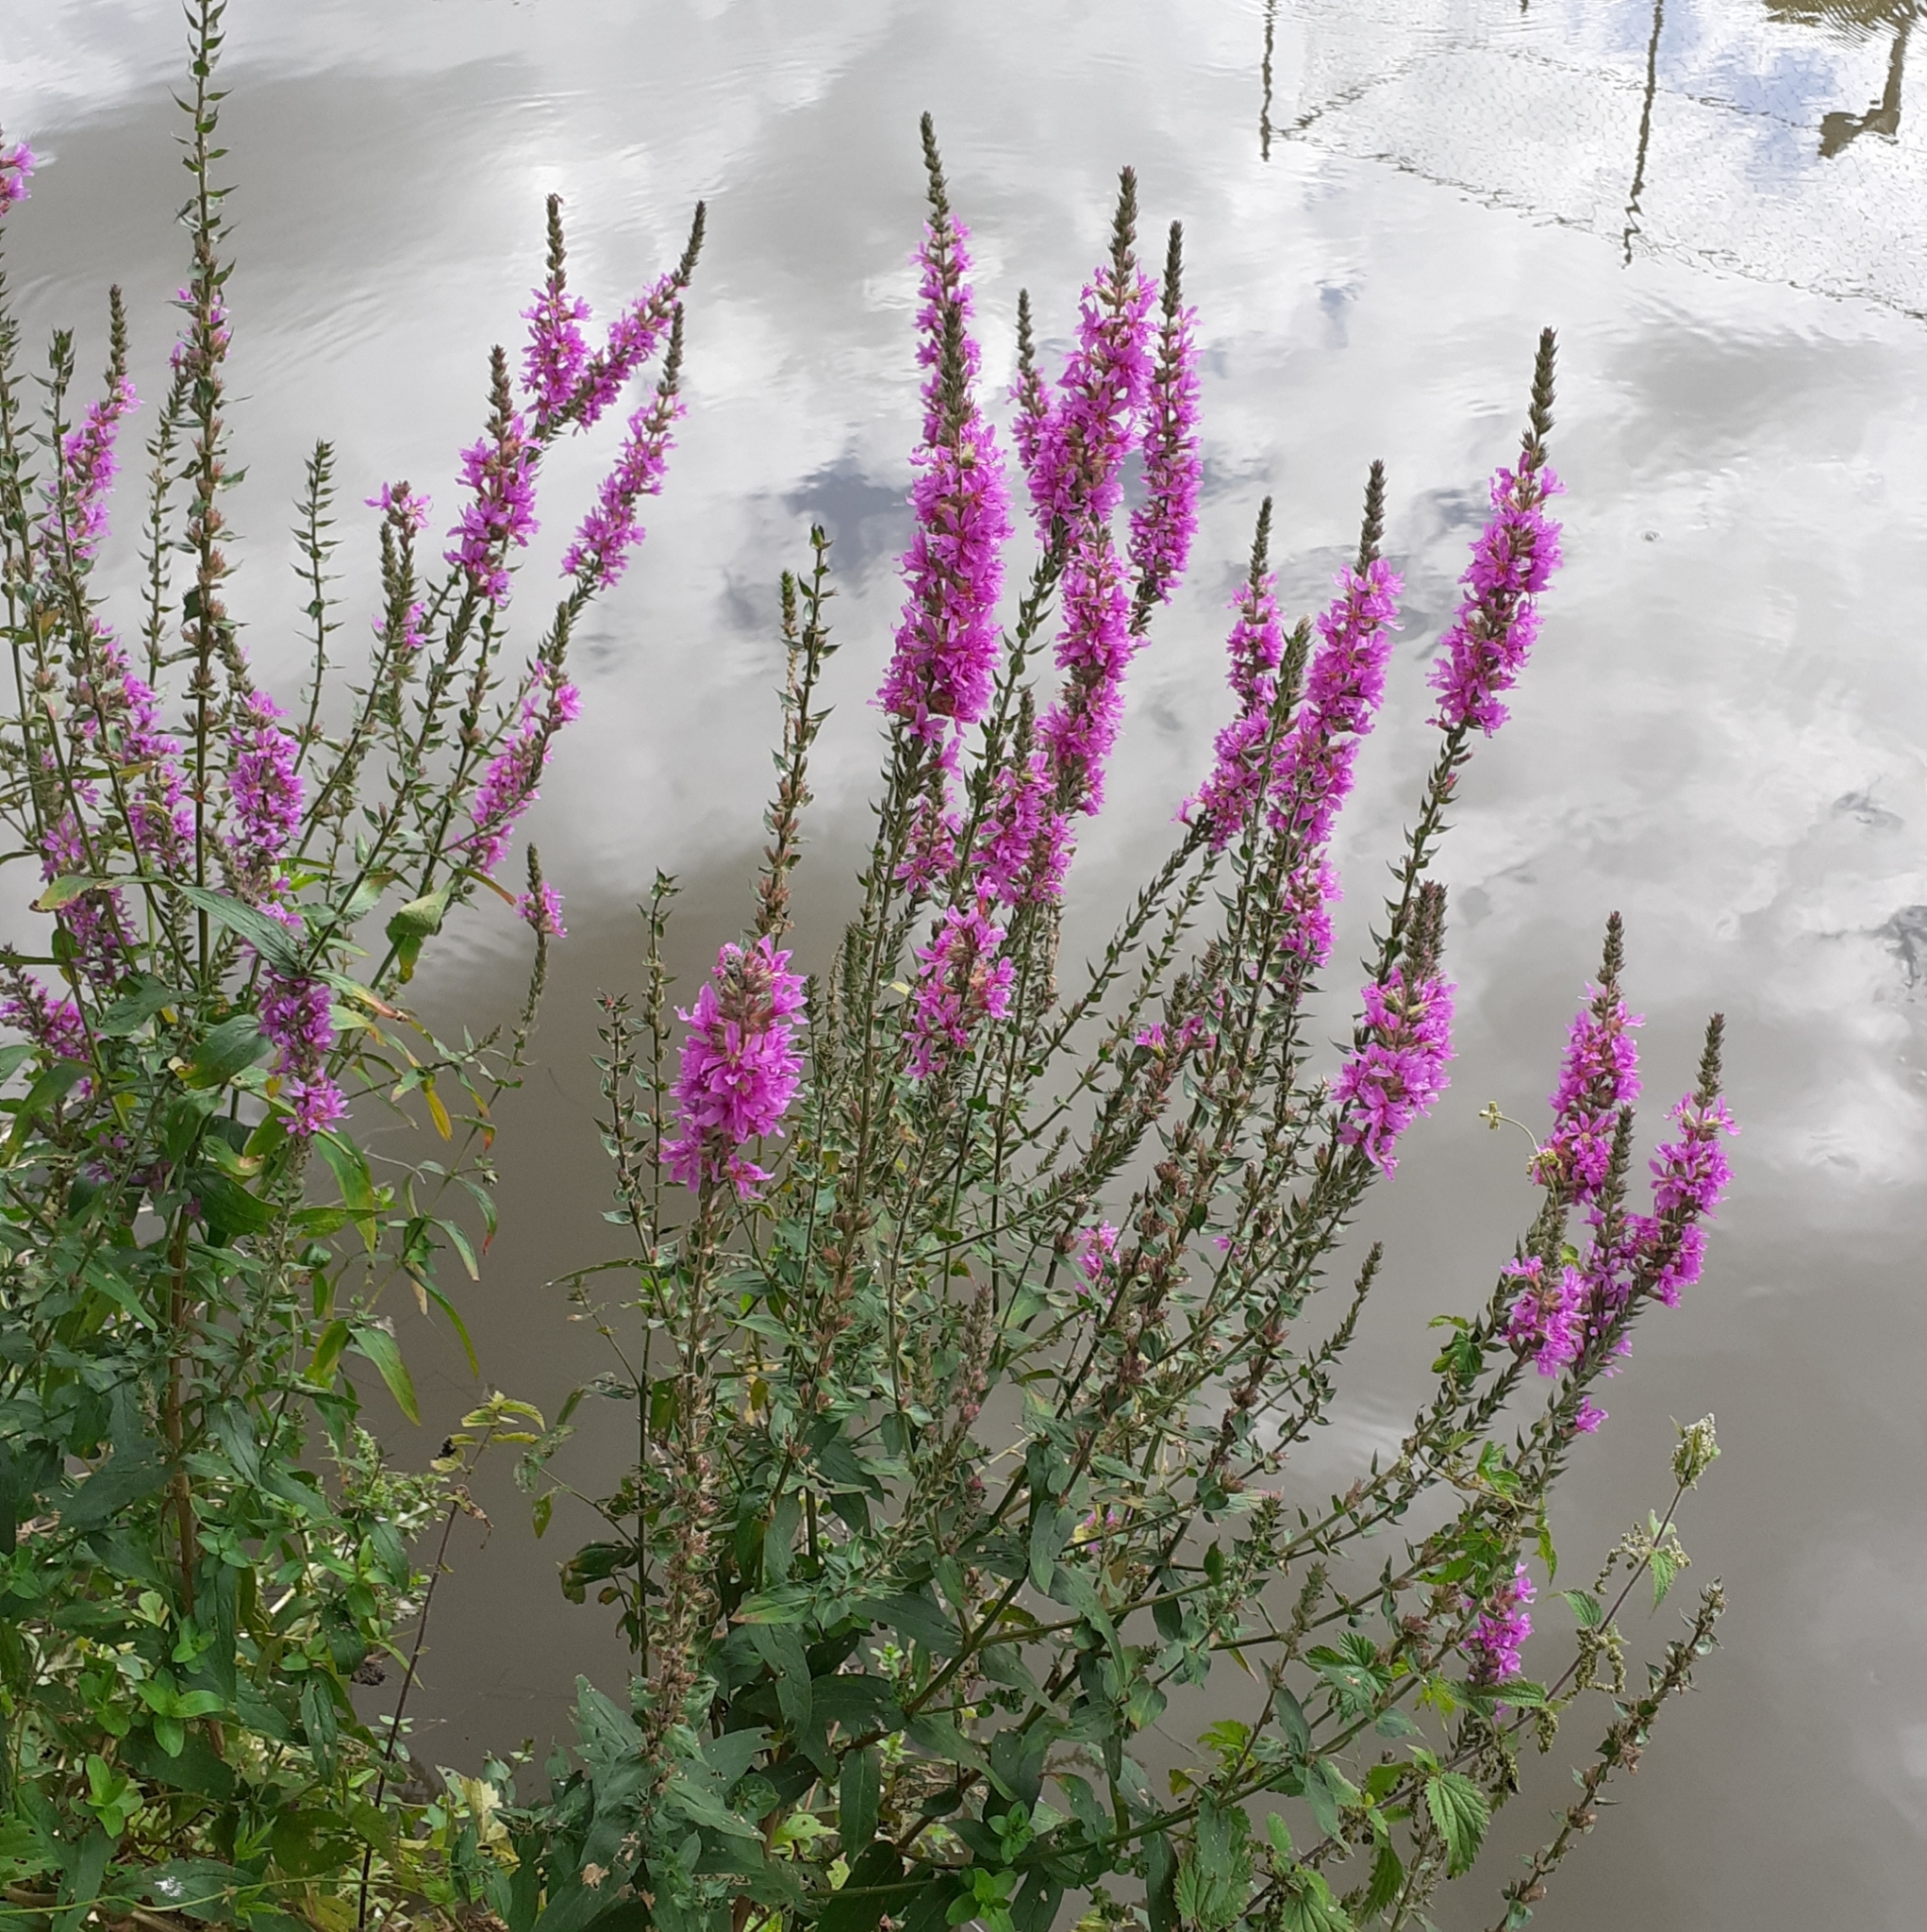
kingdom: Plantae
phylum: Tracheophyta
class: Magnoliopsida
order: Myrtales
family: Lythraceae
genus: Lythrum
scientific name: Lythrum salicaria
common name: Purple loosestrife
